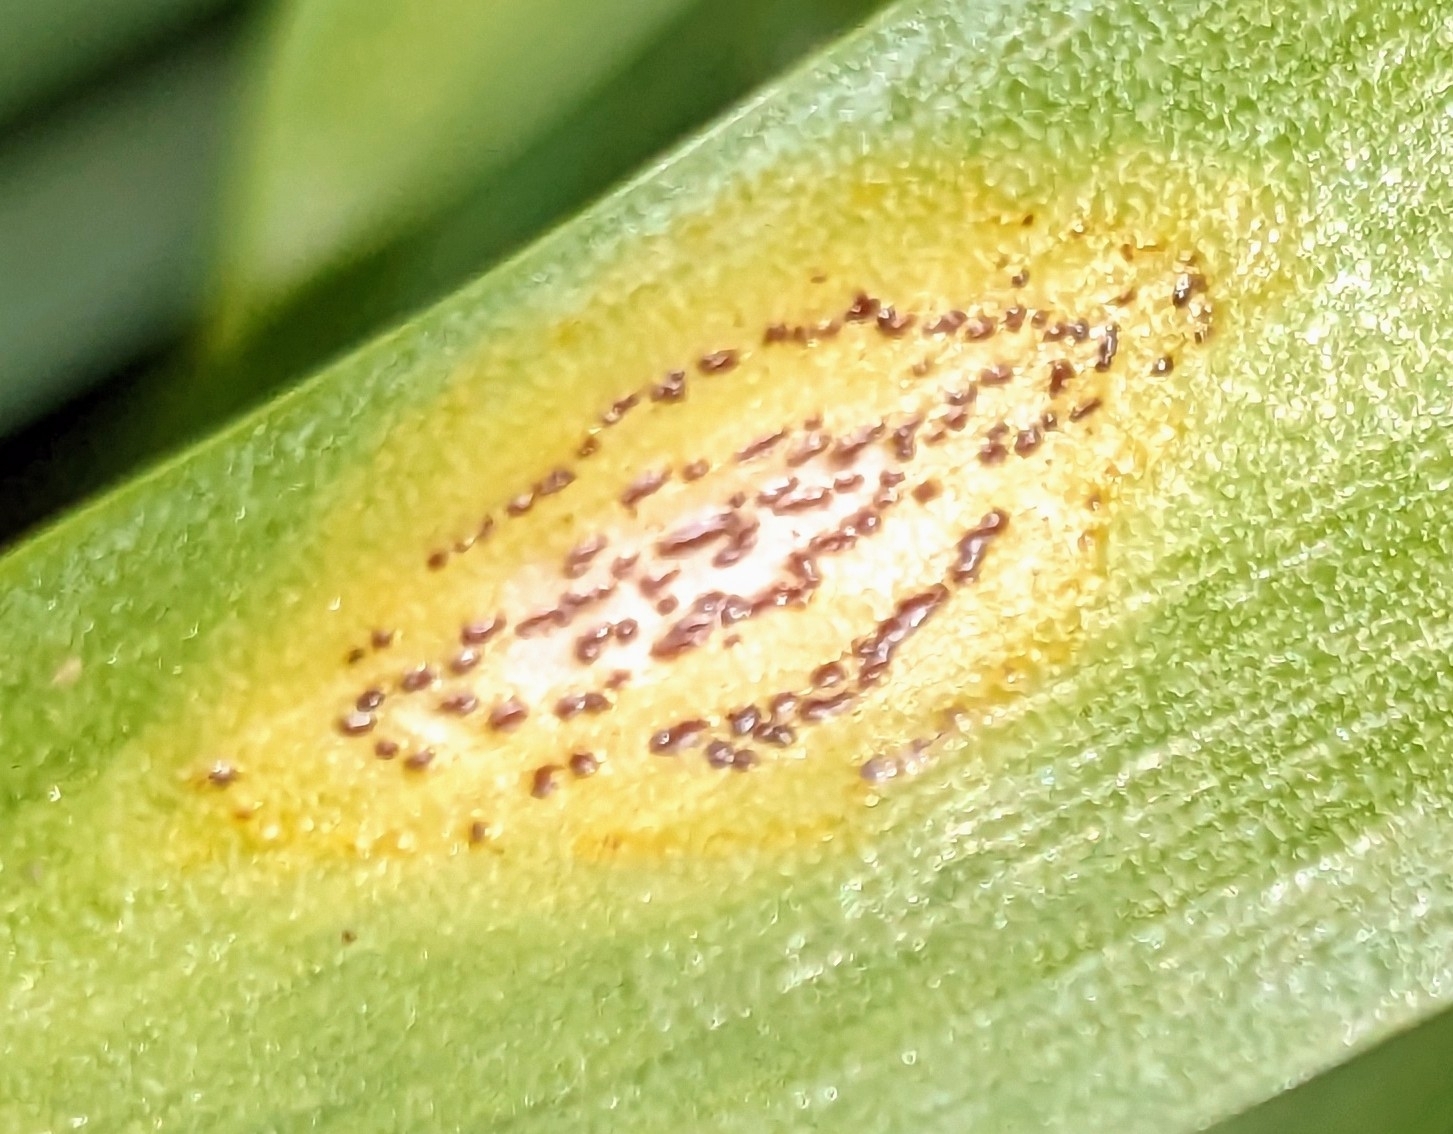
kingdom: Fungi
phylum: Basidiomycota
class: Pucciniomycetes
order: Pucciniales
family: Pucciniaceae
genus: Uromyces
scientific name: Uromyces hyacinthi
